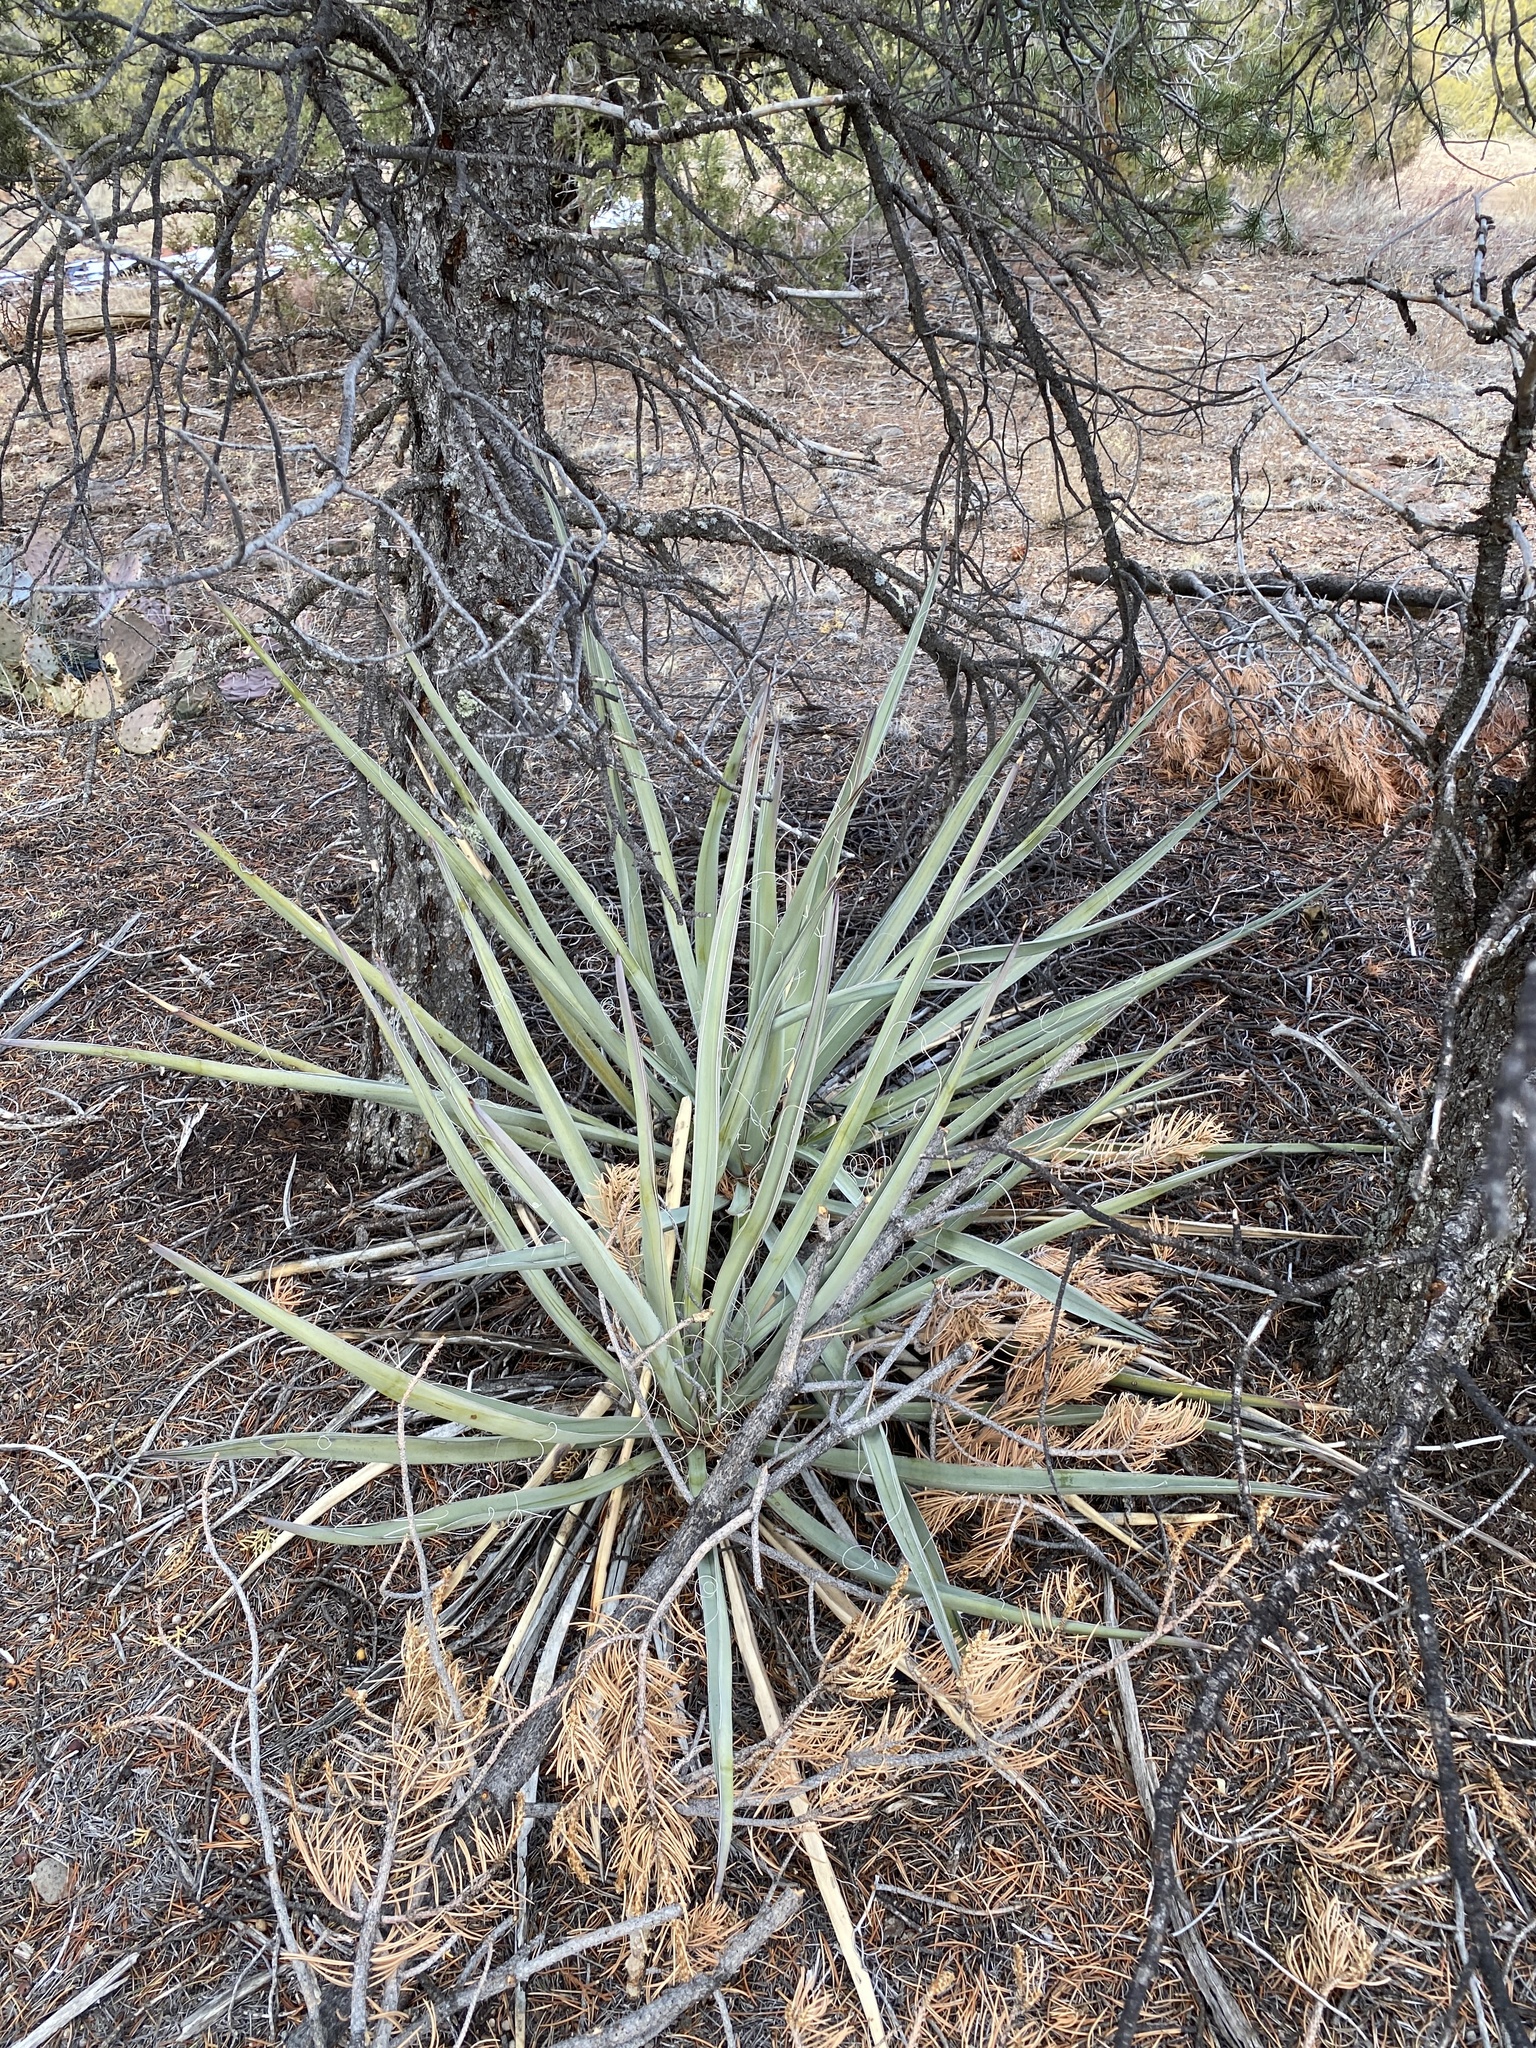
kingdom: Plantae
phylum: Tracheophyta
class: Liliopsida
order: Asparagales
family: Asparagaceae
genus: Yucca
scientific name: Yucca baccata
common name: Banana yucca
